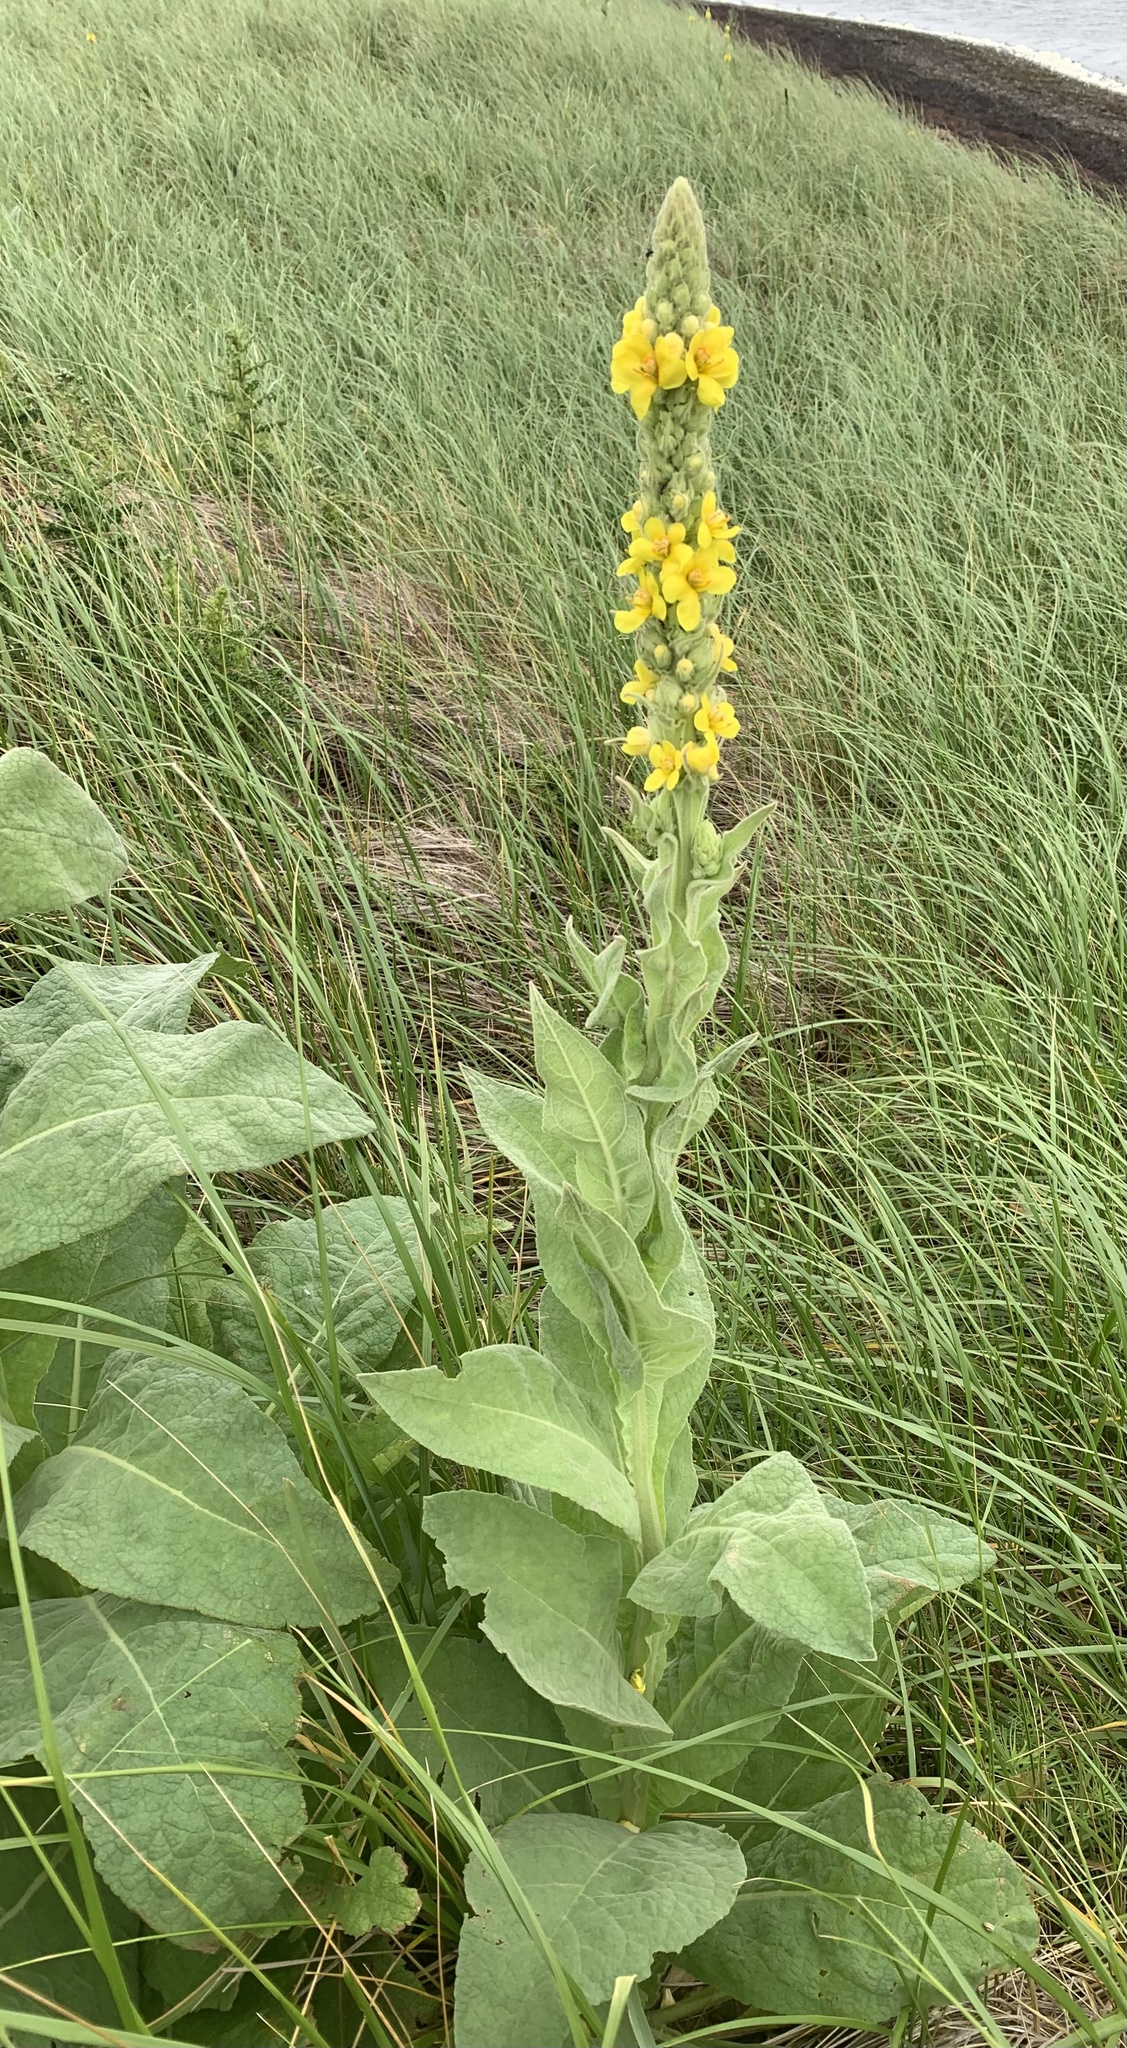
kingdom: Plantae
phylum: Tracheophyta
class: Magnoliopsida
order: Lamiales
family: Scrophulariaceae
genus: Verbascum
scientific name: Verbascum thapsus
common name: Common mullein
